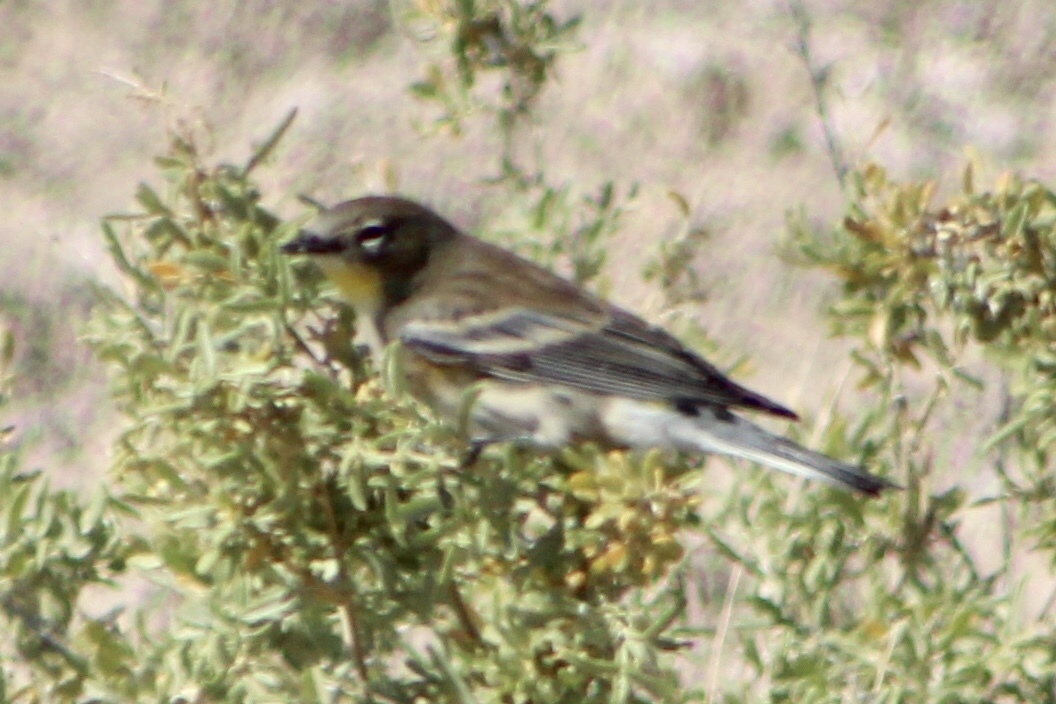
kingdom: Animalia
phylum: Chordata
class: Aves
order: Passeriformes
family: Parulidae
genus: Setophaga
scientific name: Setophaga coronata
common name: Myrtle warbler
